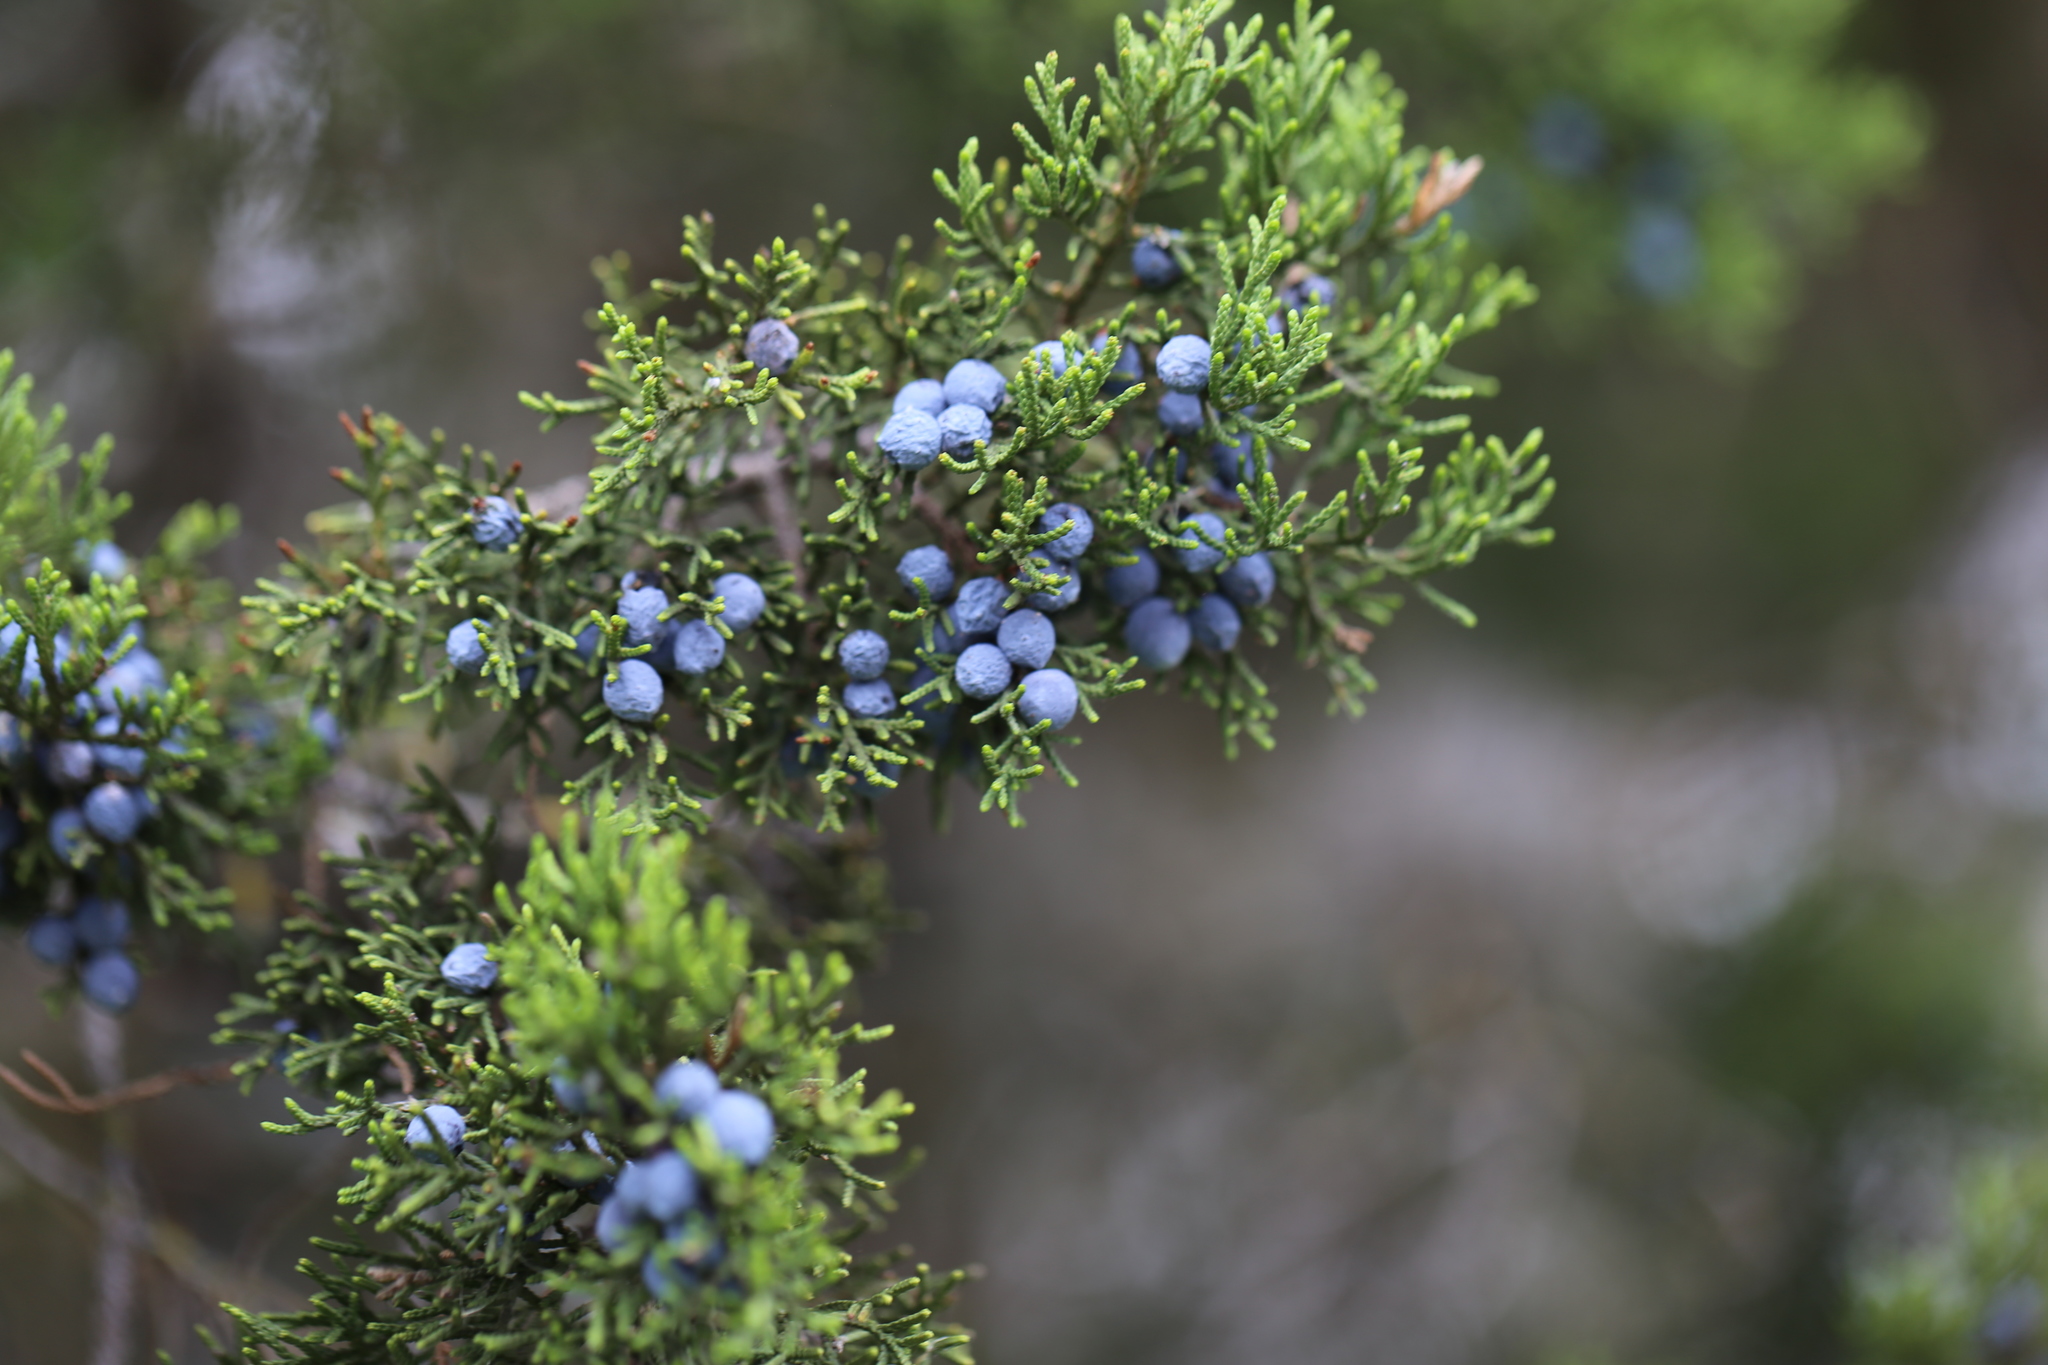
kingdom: Plantae
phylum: Tracheophyta
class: Pinopsida
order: Pinales
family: Cupressaceae
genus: Juniperus
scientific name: Juniperus ashei
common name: Mexican juniper
